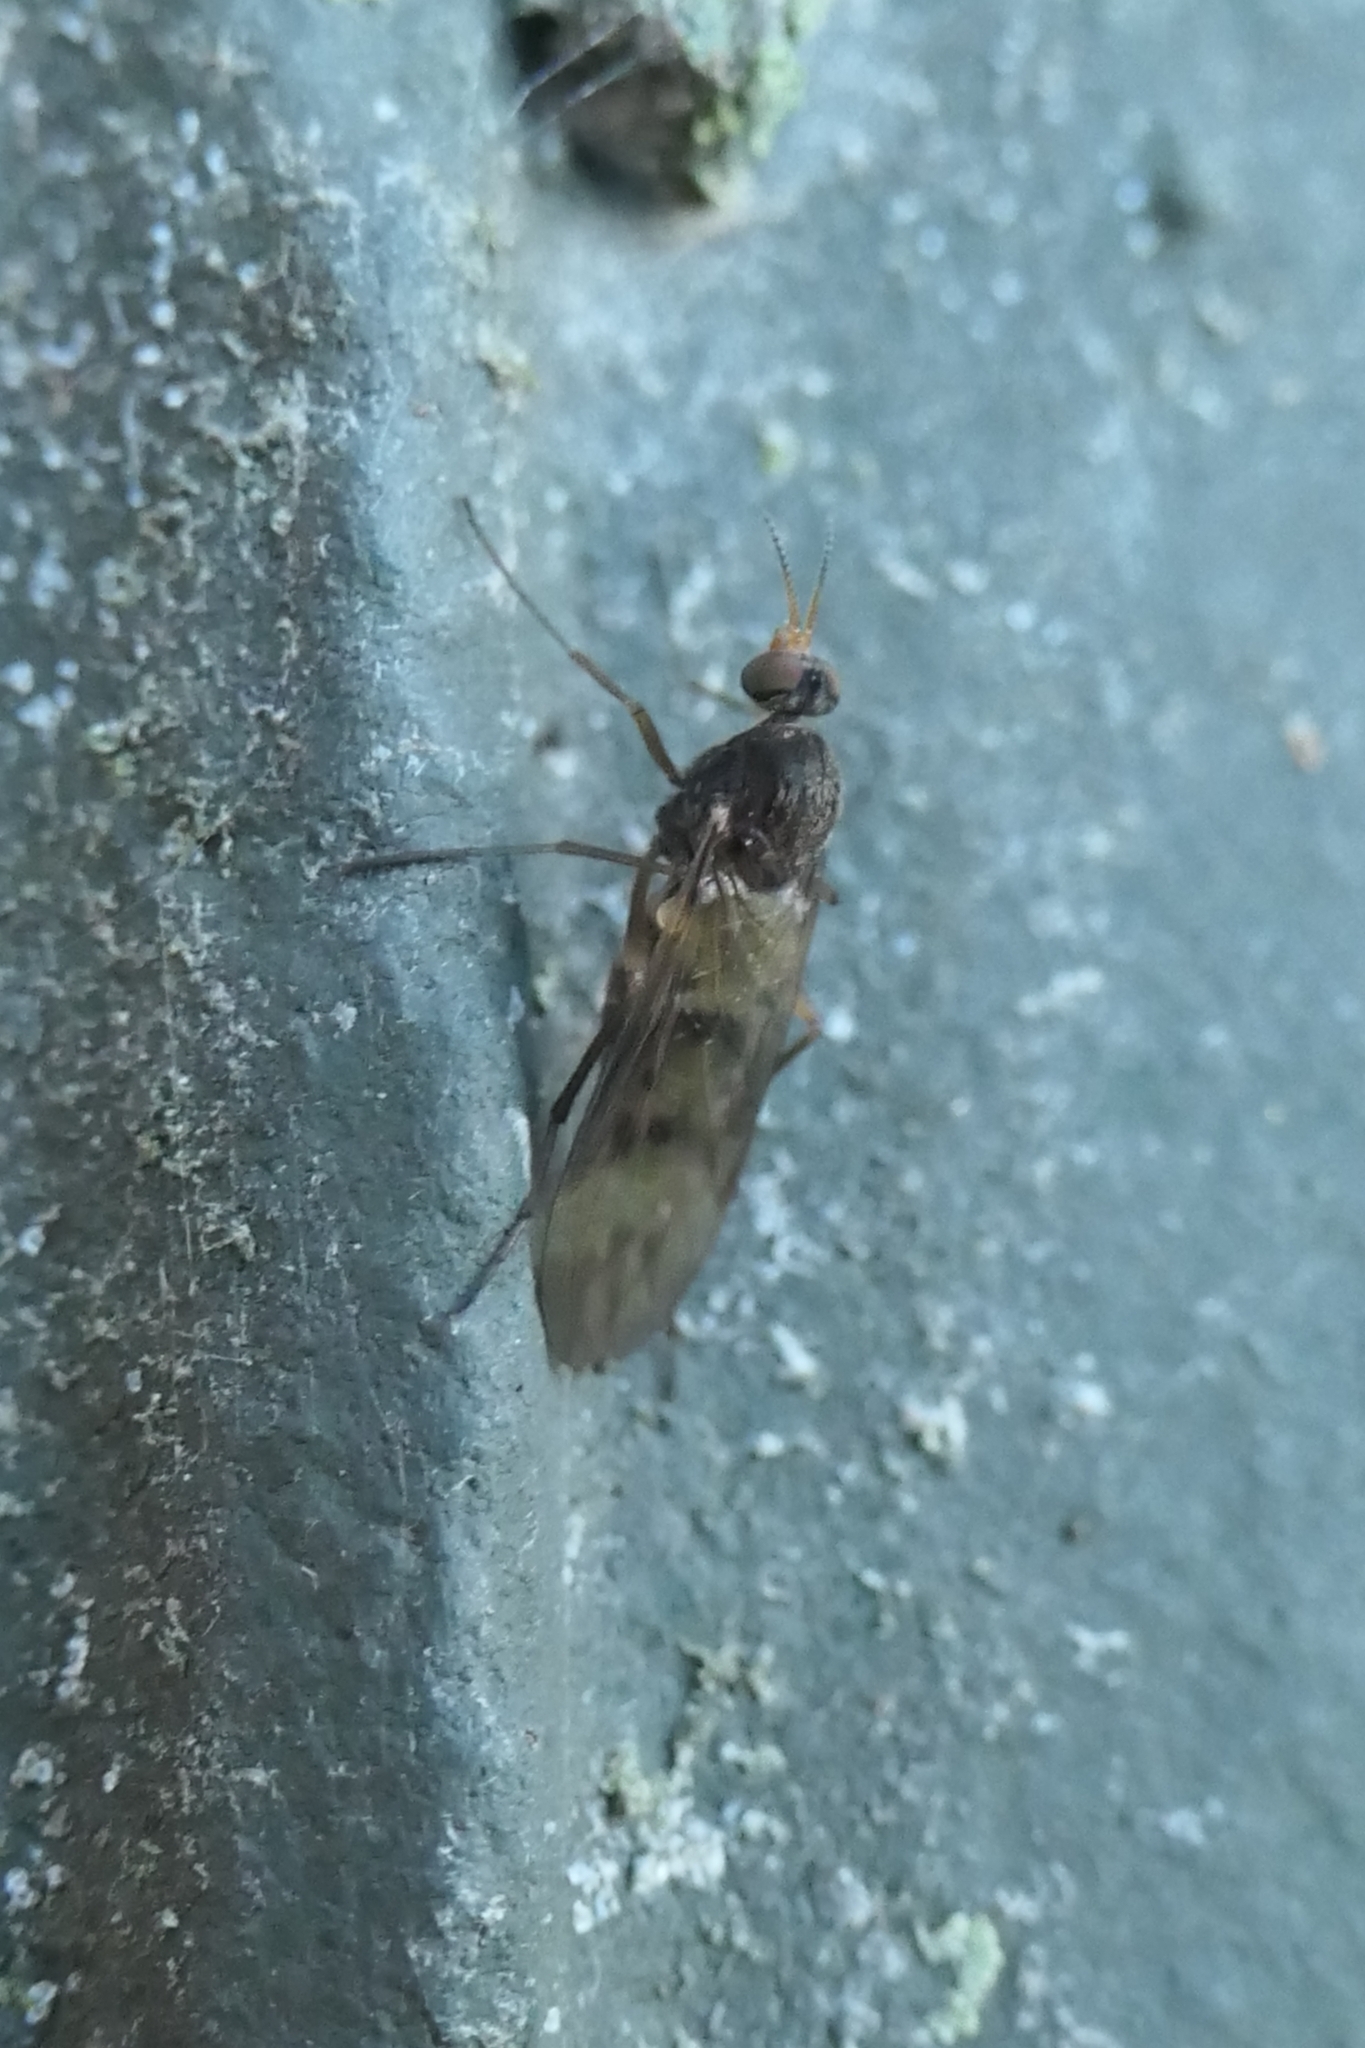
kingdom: Animalia
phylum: Arthropoda
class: Insecta
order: Diptera
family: Anisopodidae
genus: Sylvicola
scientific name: Sylvicola neozelandicus
